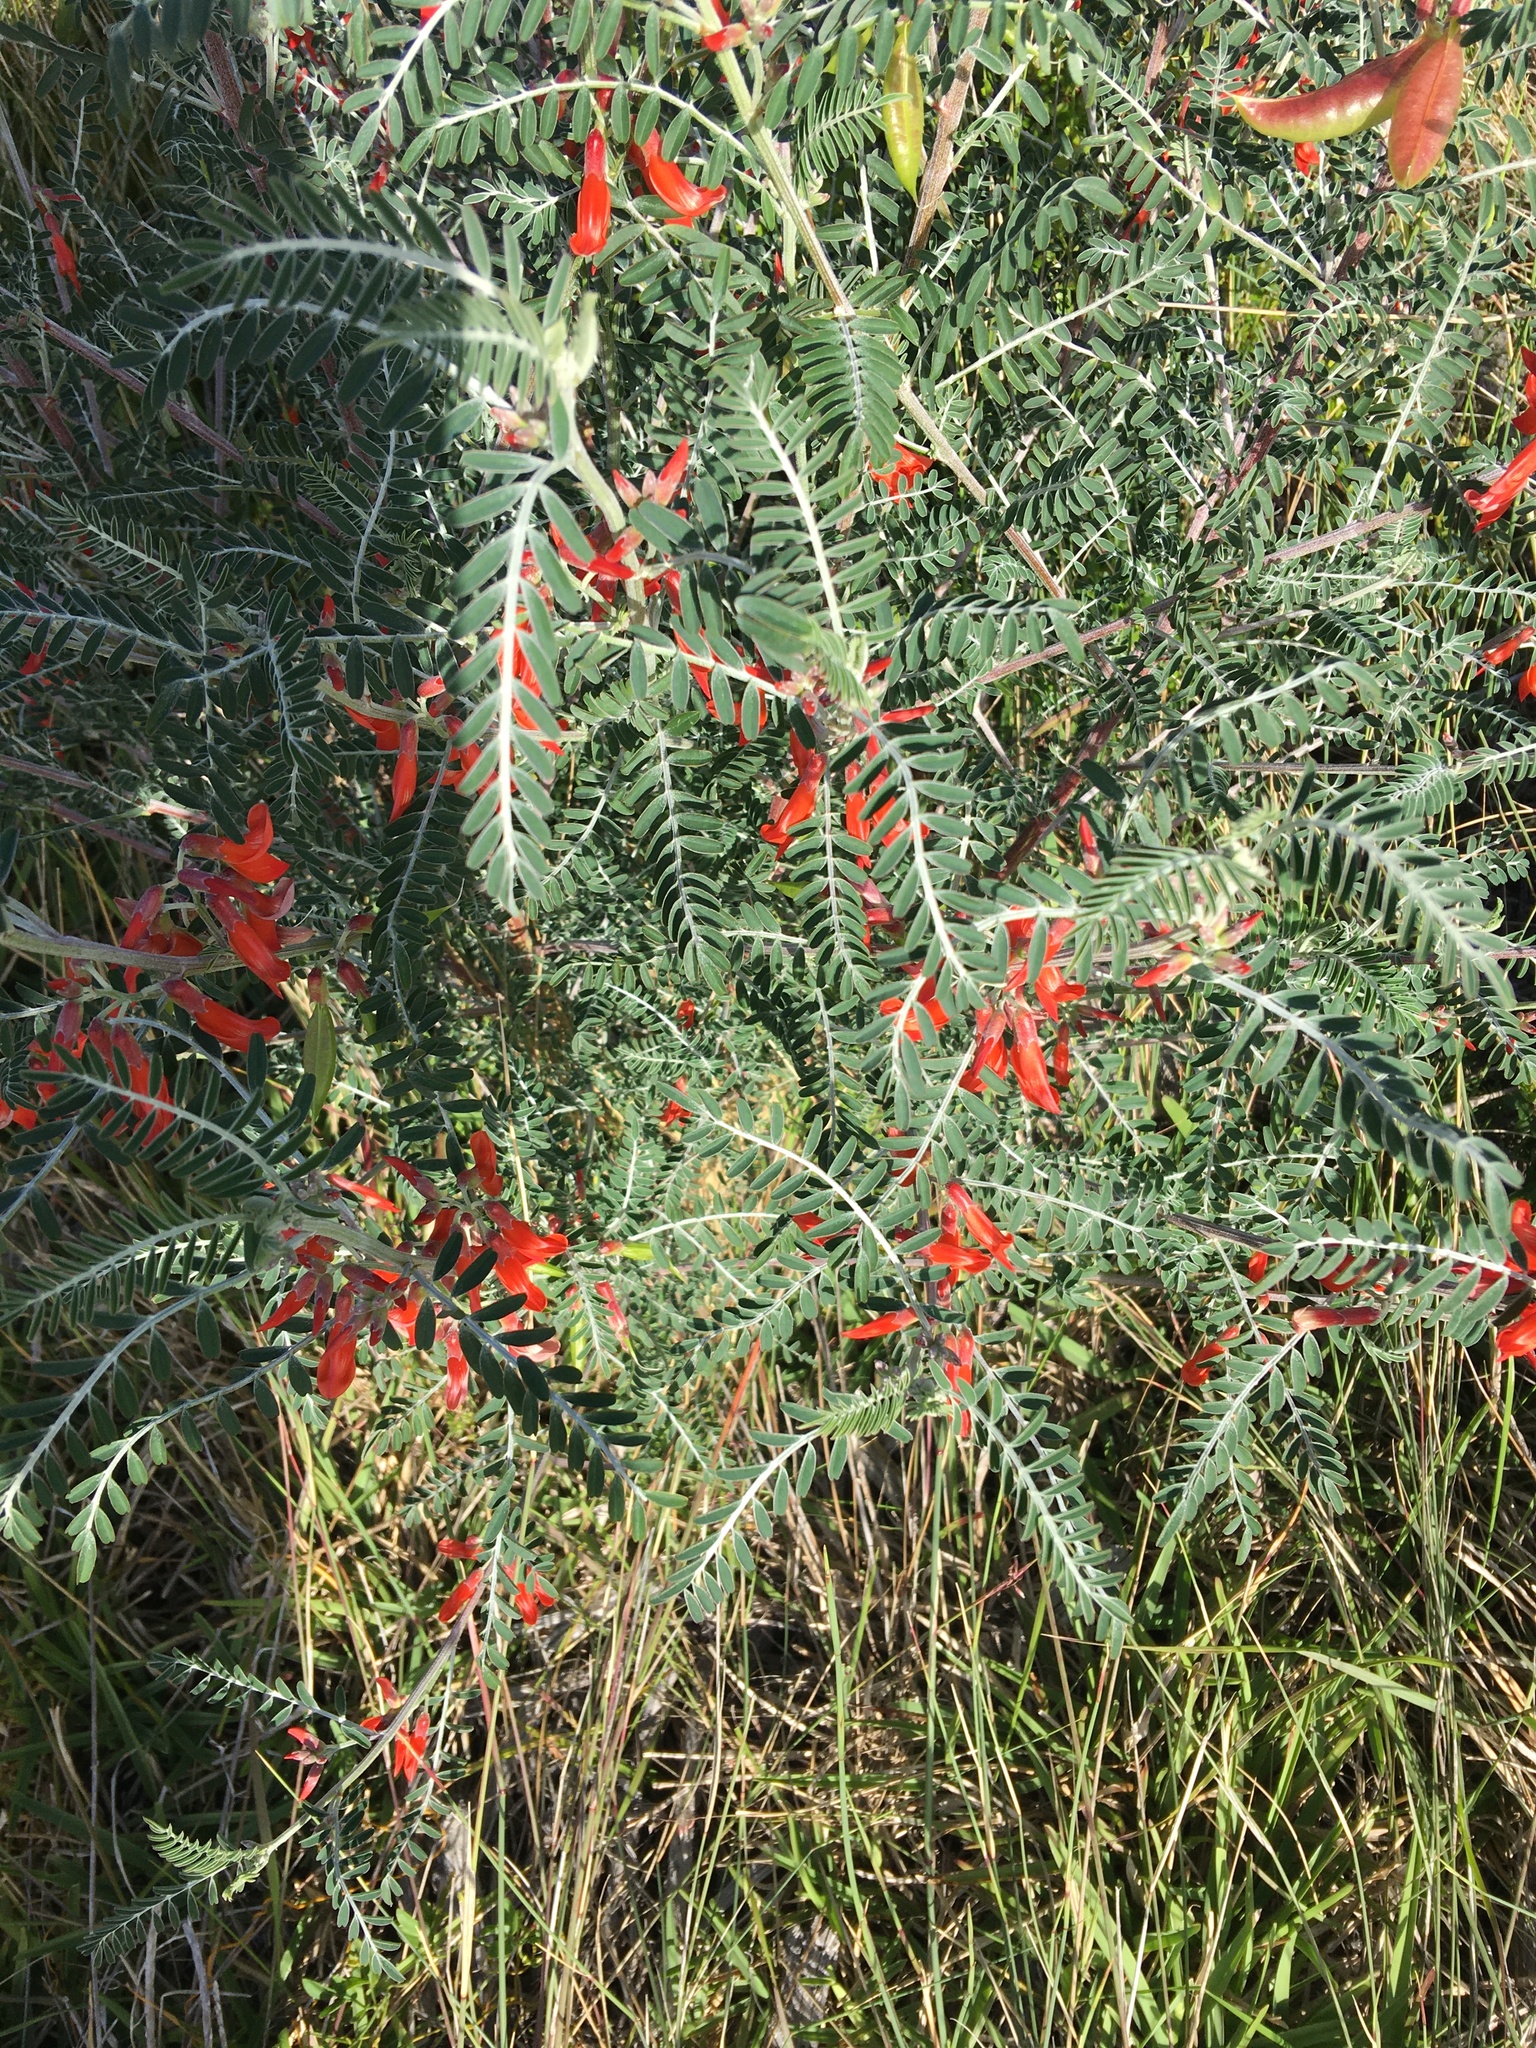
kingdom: Plantae
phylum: Tracheophyta
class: Magnoliopsida
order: Fabales
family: Fabaceae
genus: Lessertia
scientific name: Lessertia frutescens
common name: Balloon-pea
